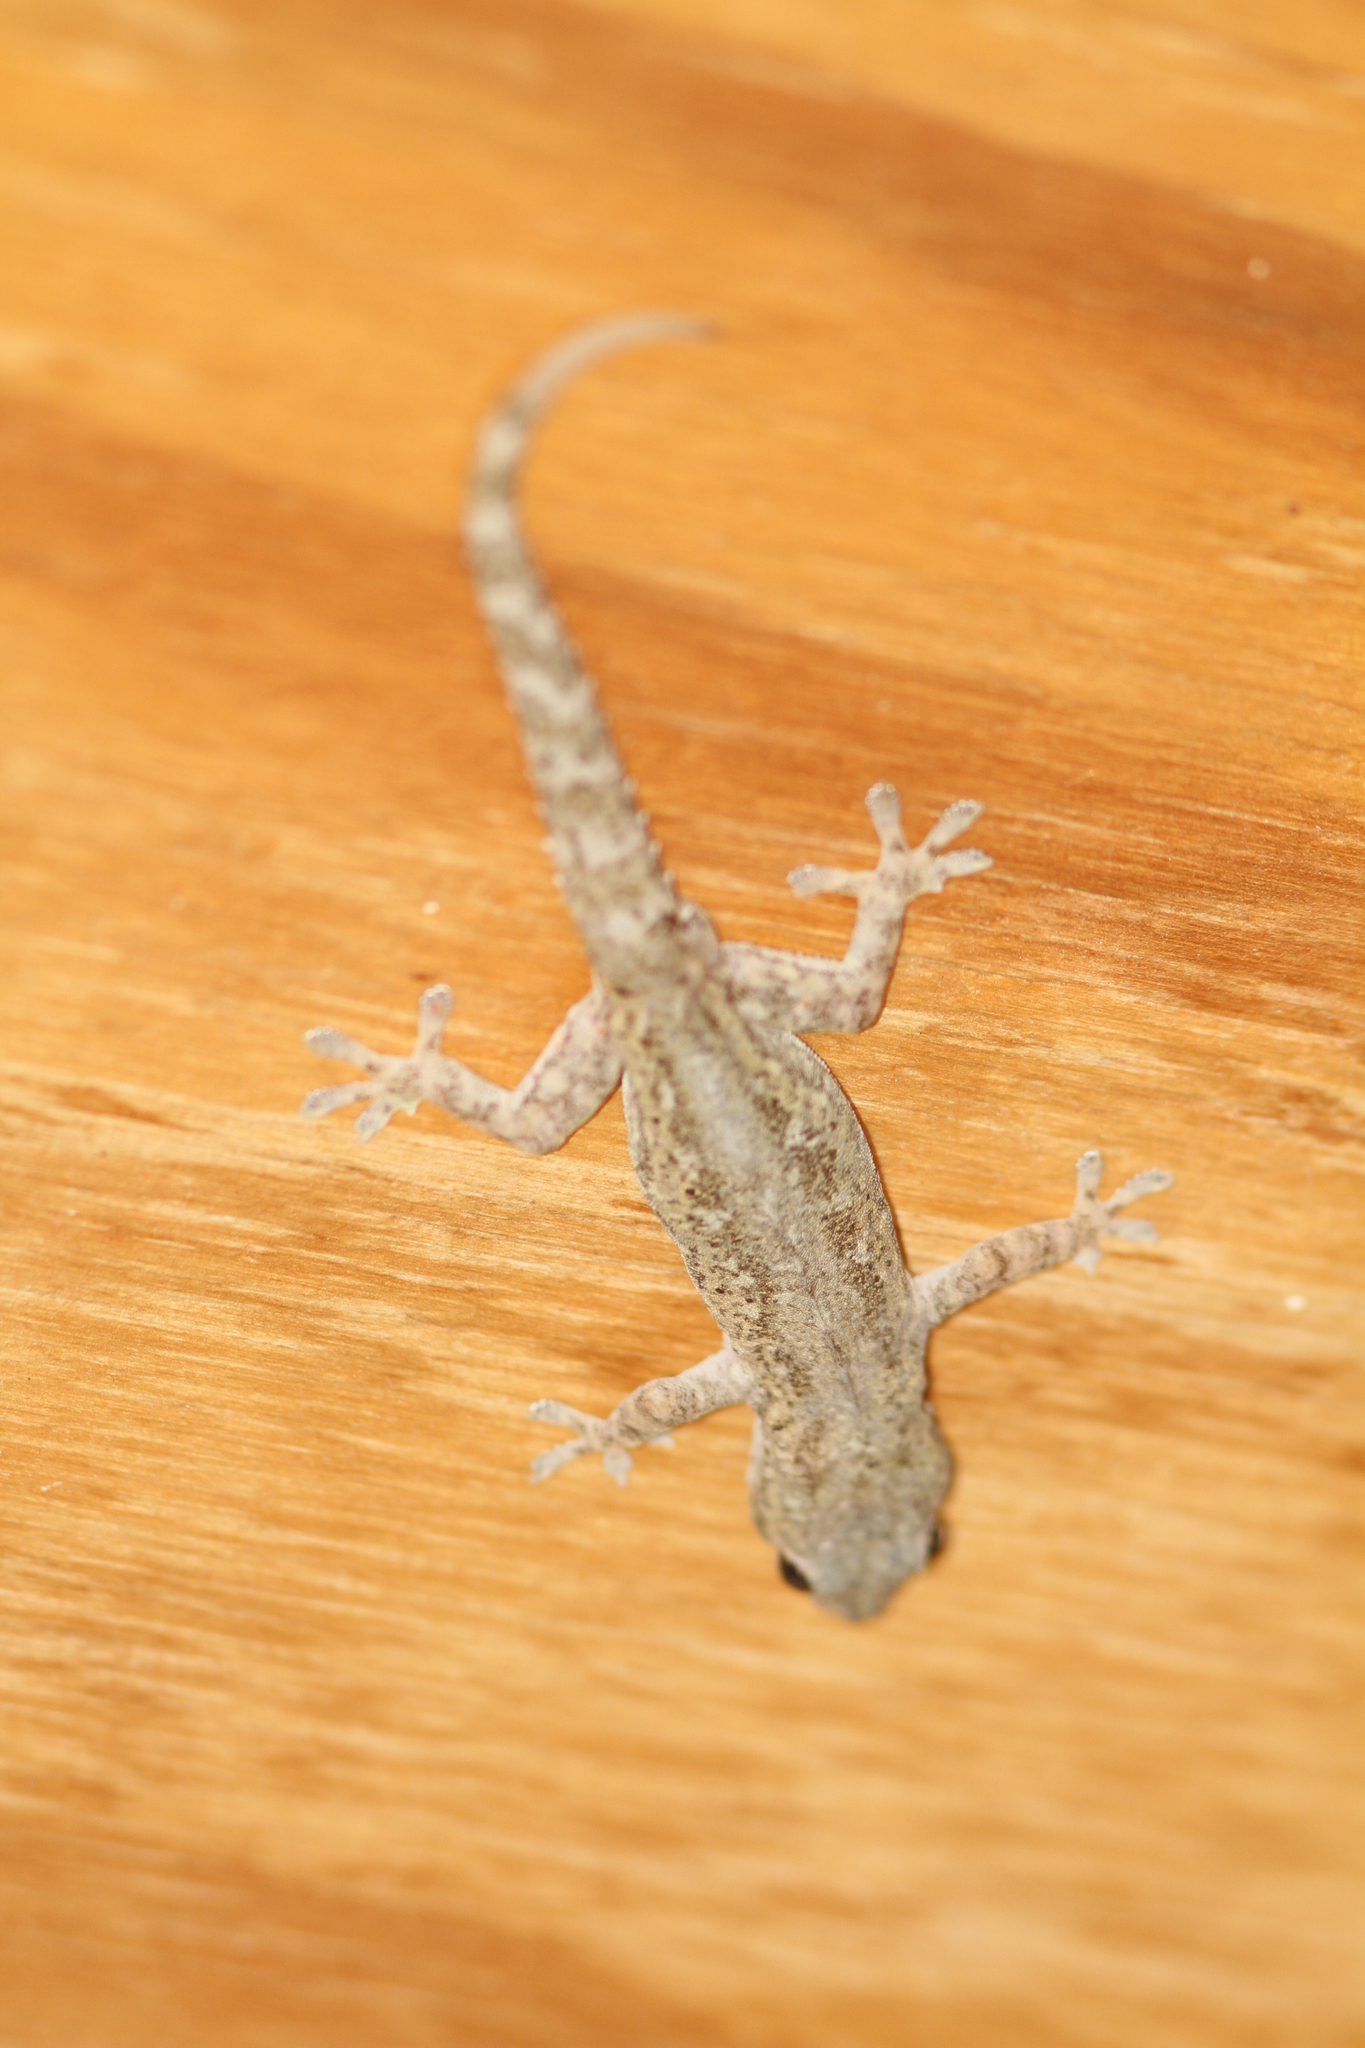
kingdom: Animalia
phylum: Chordata
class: Squamata
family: Gekkonidae
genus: Hemidactylus
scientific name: Hemidactylus frenatus
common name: Common house gecko
